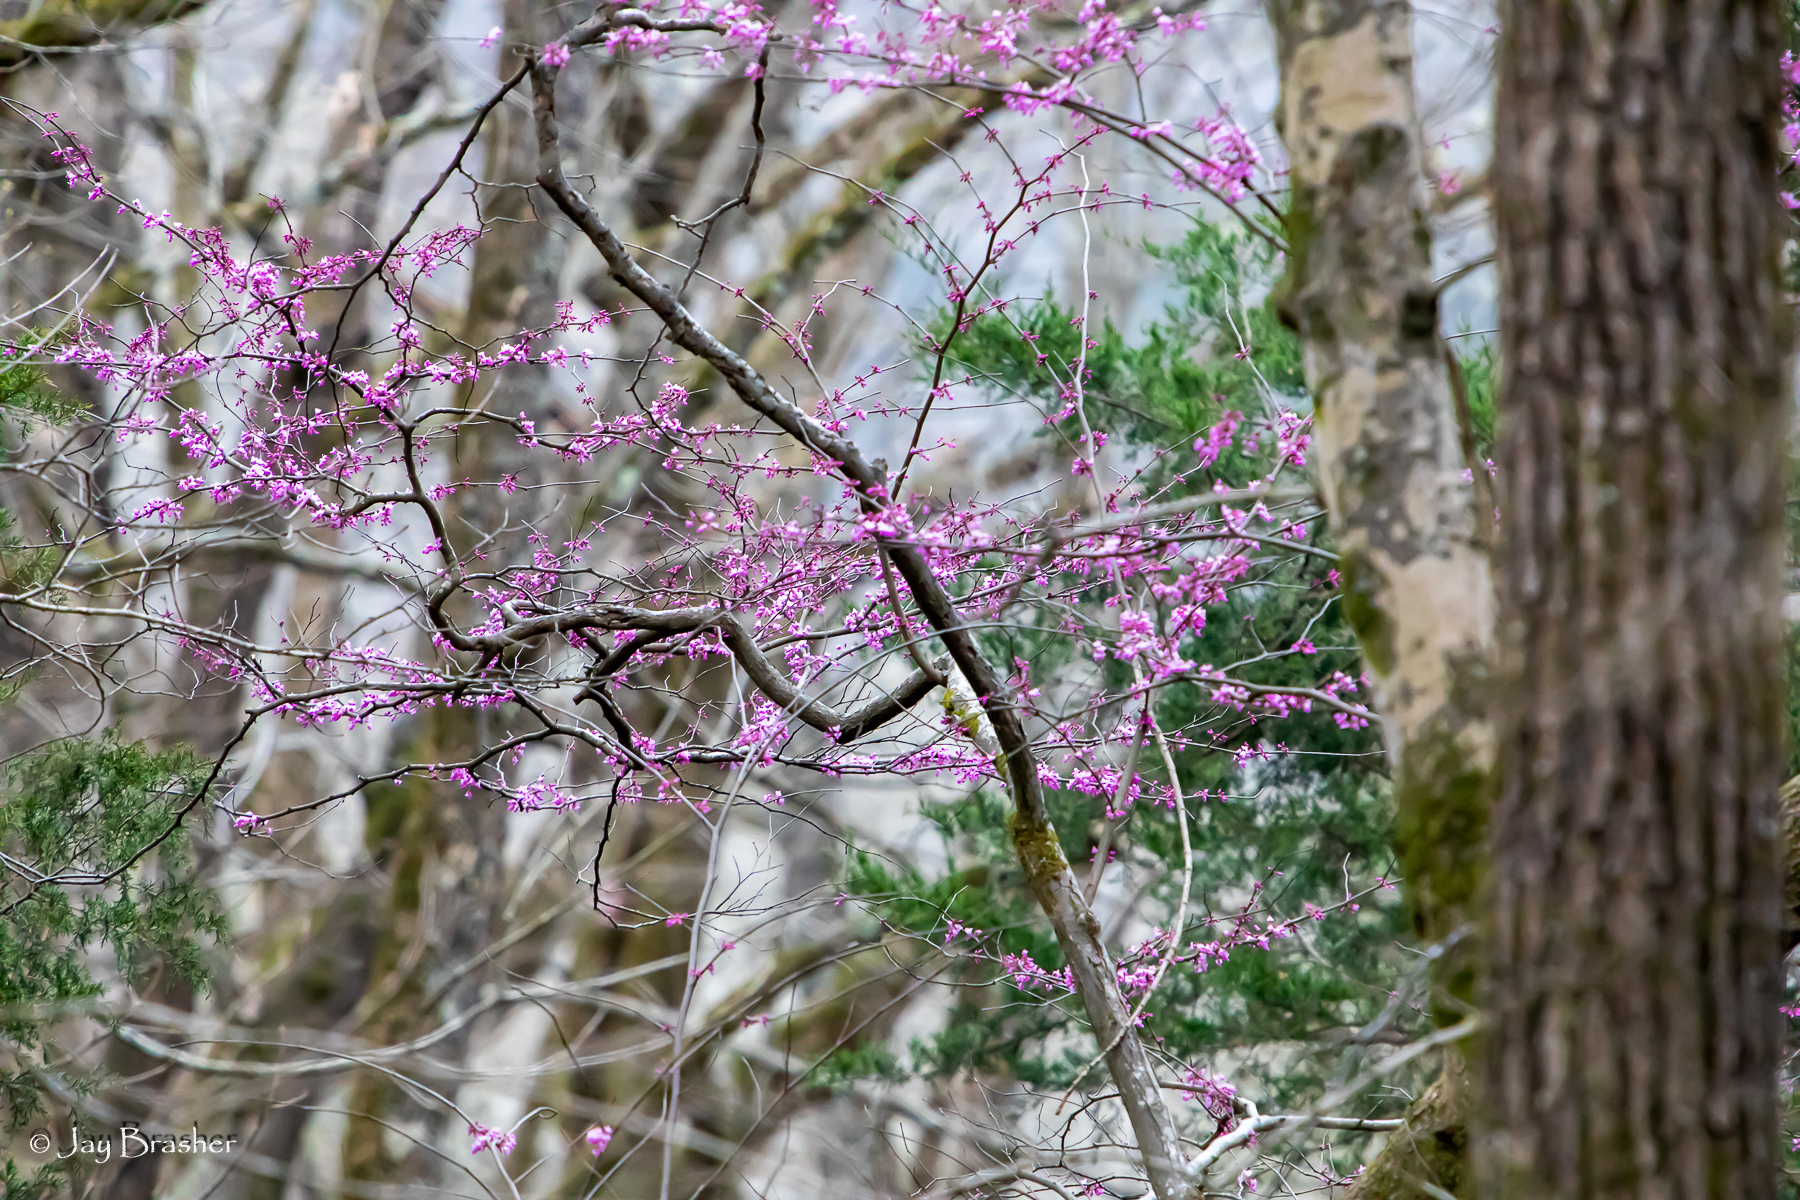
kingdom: Plantae
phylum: Tracheophyta
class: Magnoliopsida
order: Fabales
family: Fabaceae
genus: Cercis
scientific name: Cercis canadensis
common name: Eastern redbud
